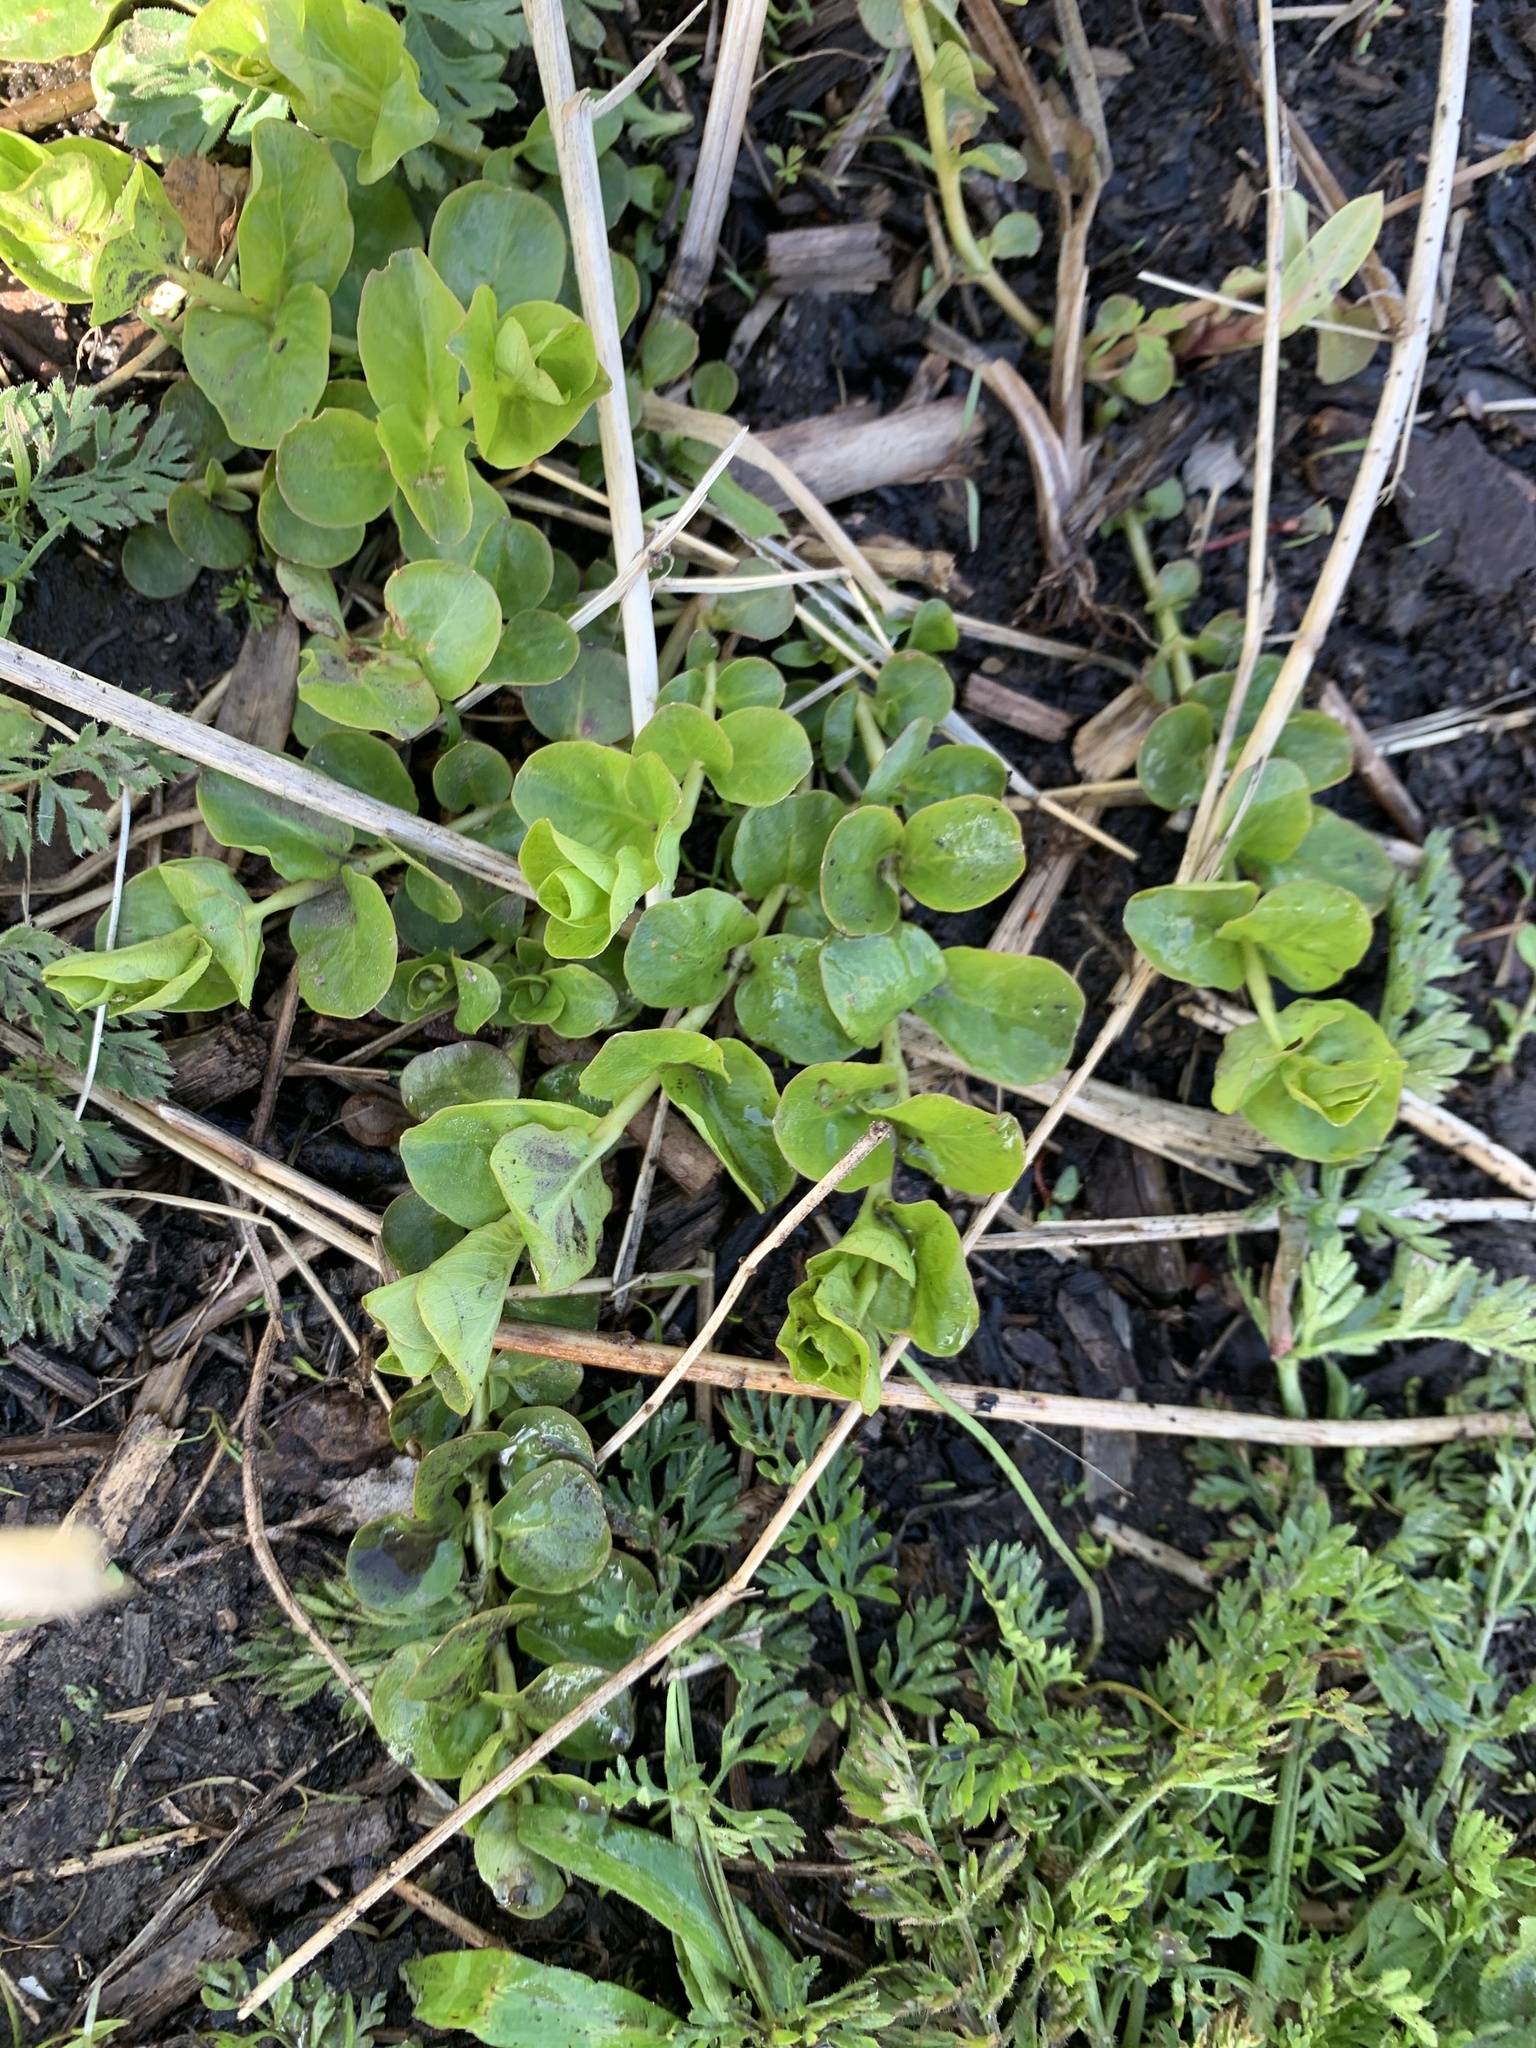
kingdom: Plantae
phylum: Tracheophyta
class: Magnoliopsida
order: Ericales
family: Primulaceae
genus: Lysimachia
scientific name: Lysimachia nummularia
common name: Moneywort
